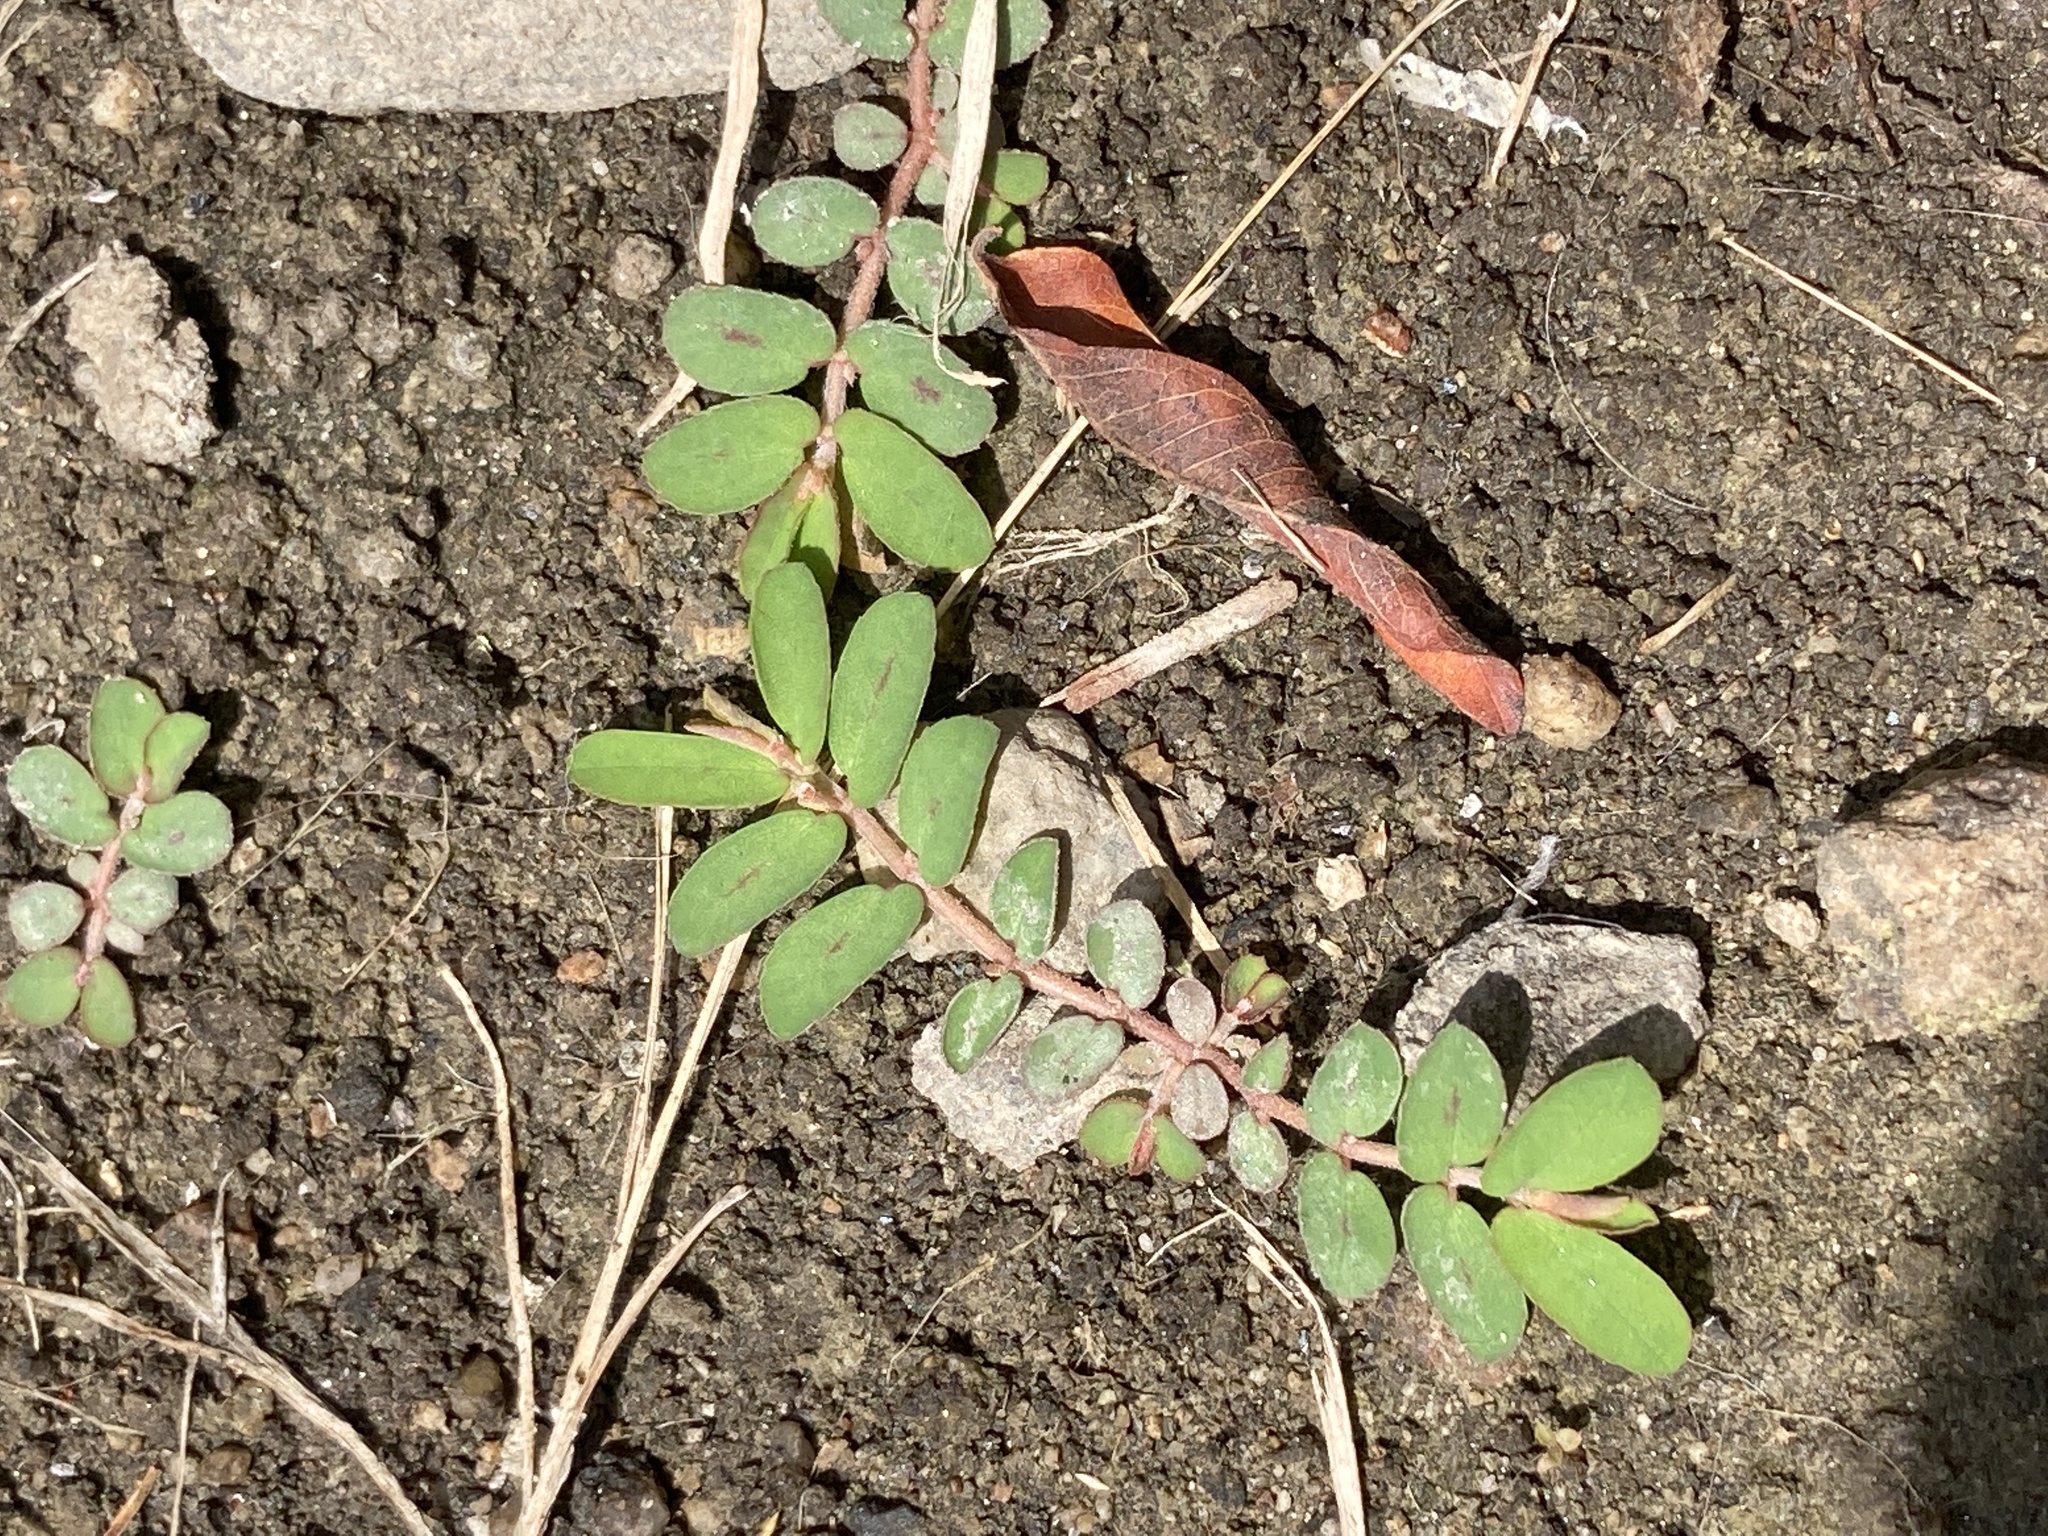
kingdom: Plantae
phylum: Tracheophyta
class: Magnoliopsida
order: Malpighiales
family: Euphorbiaceae
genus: Euphorbia
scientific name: Euphorbia maculata
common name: Spotted spurge
